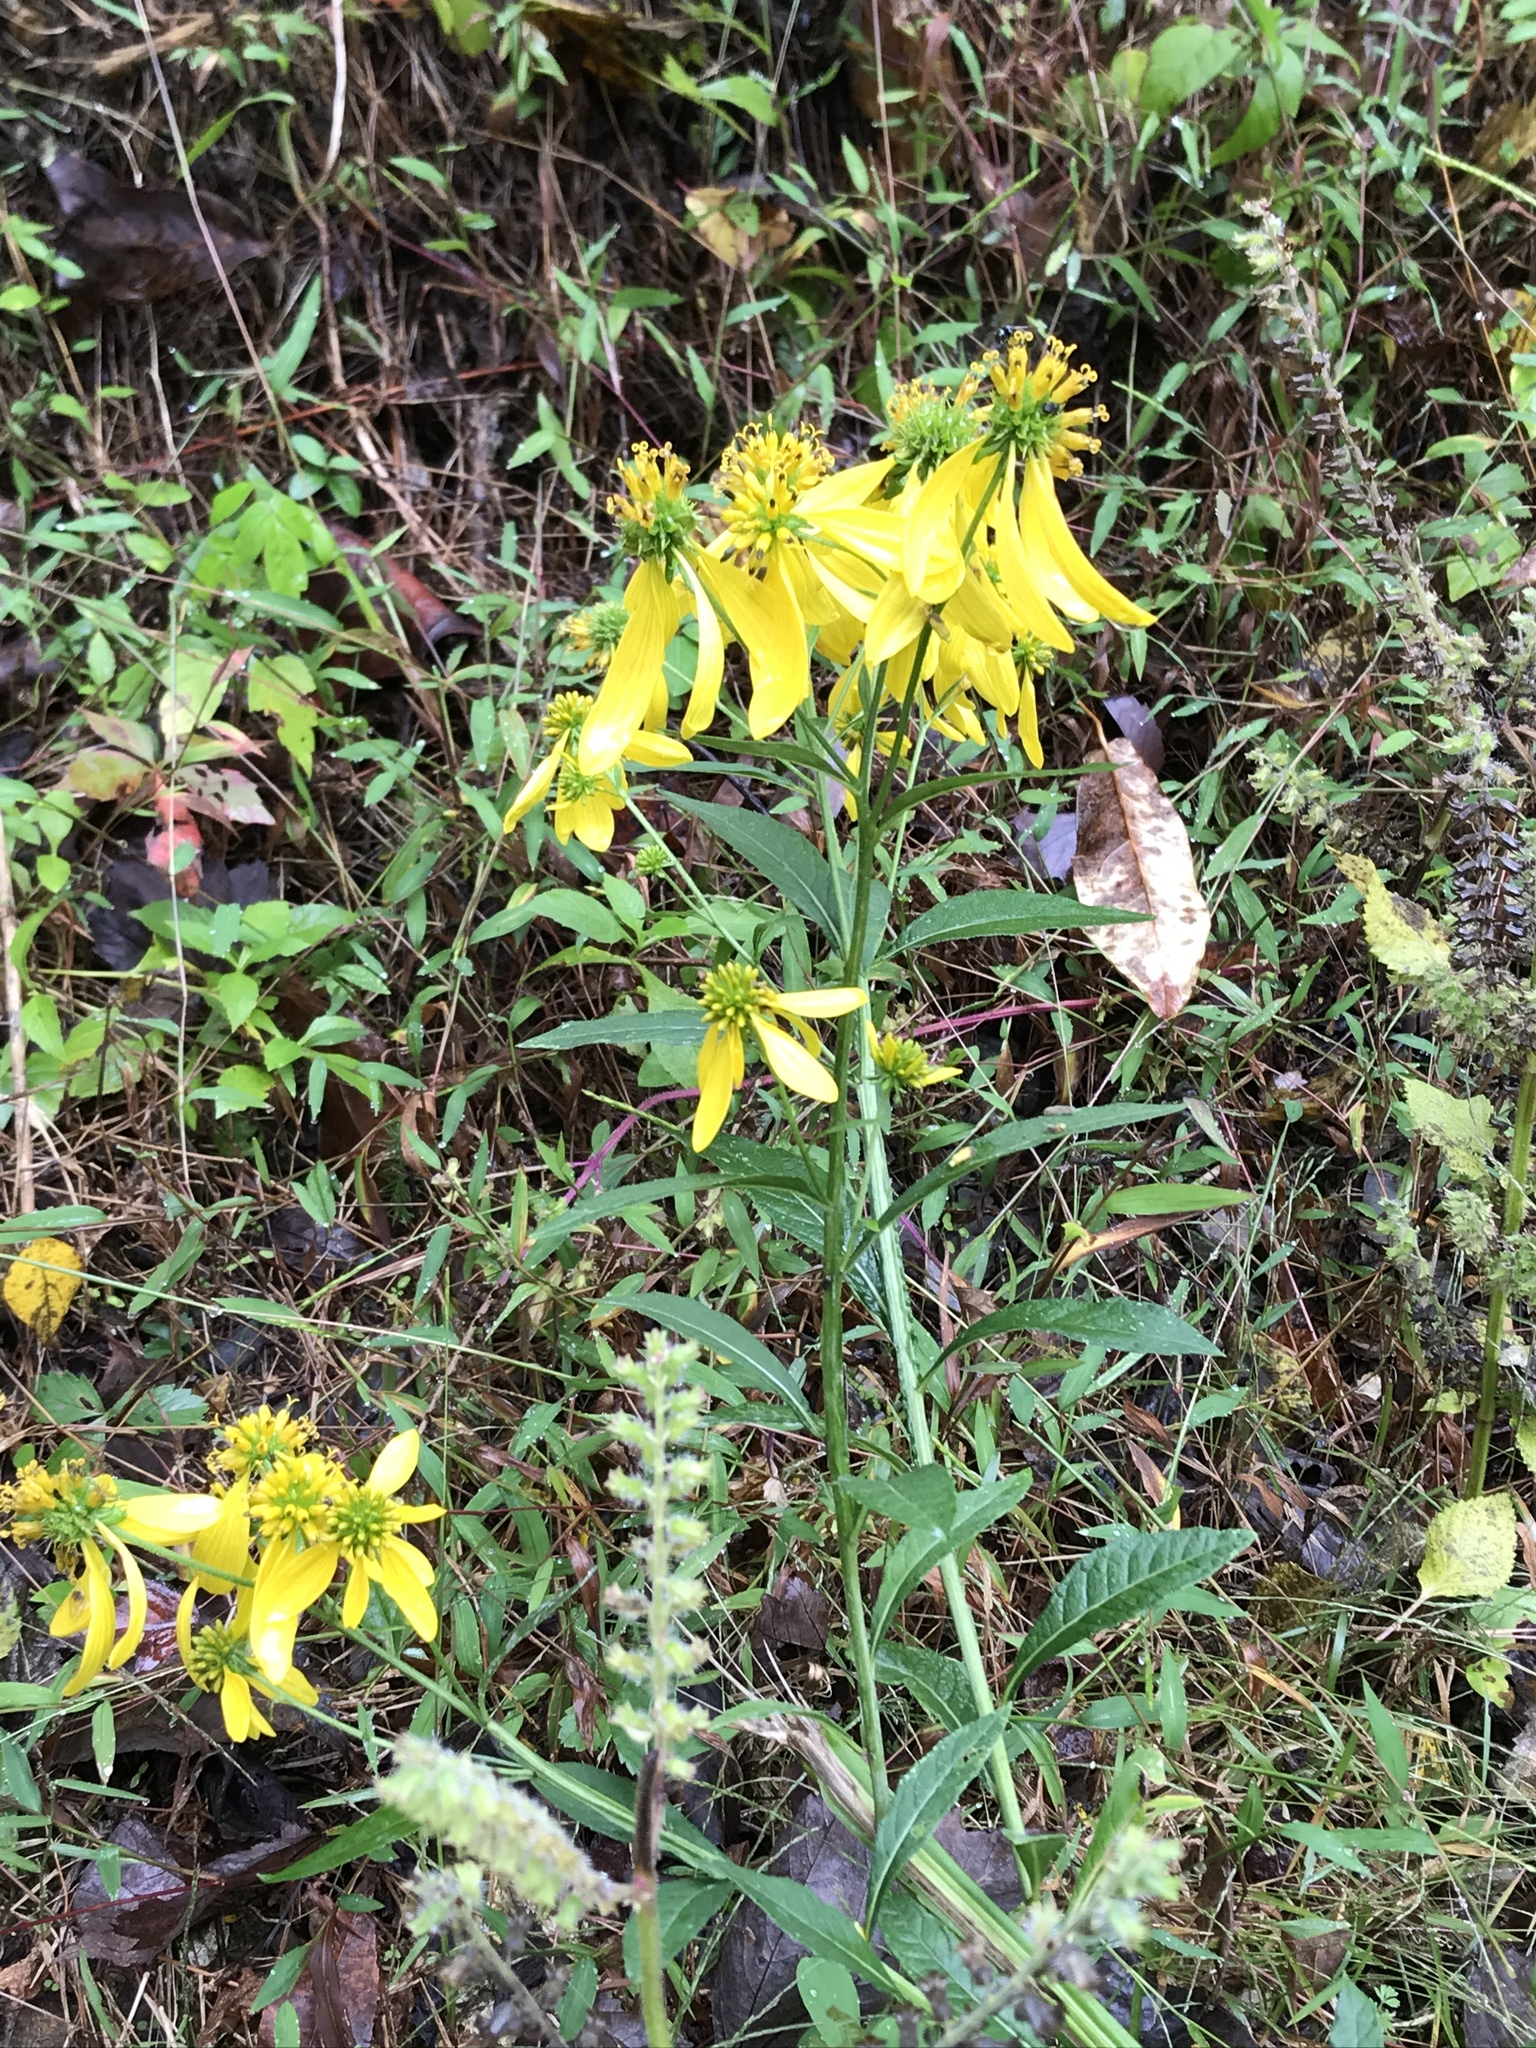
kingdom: Plantae
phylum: Tracheophyta
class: Magnoliopsida
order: Asterales
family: Asteraceae
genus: Verbesina
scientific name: Verbesina alternifolia
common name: Wingstem
